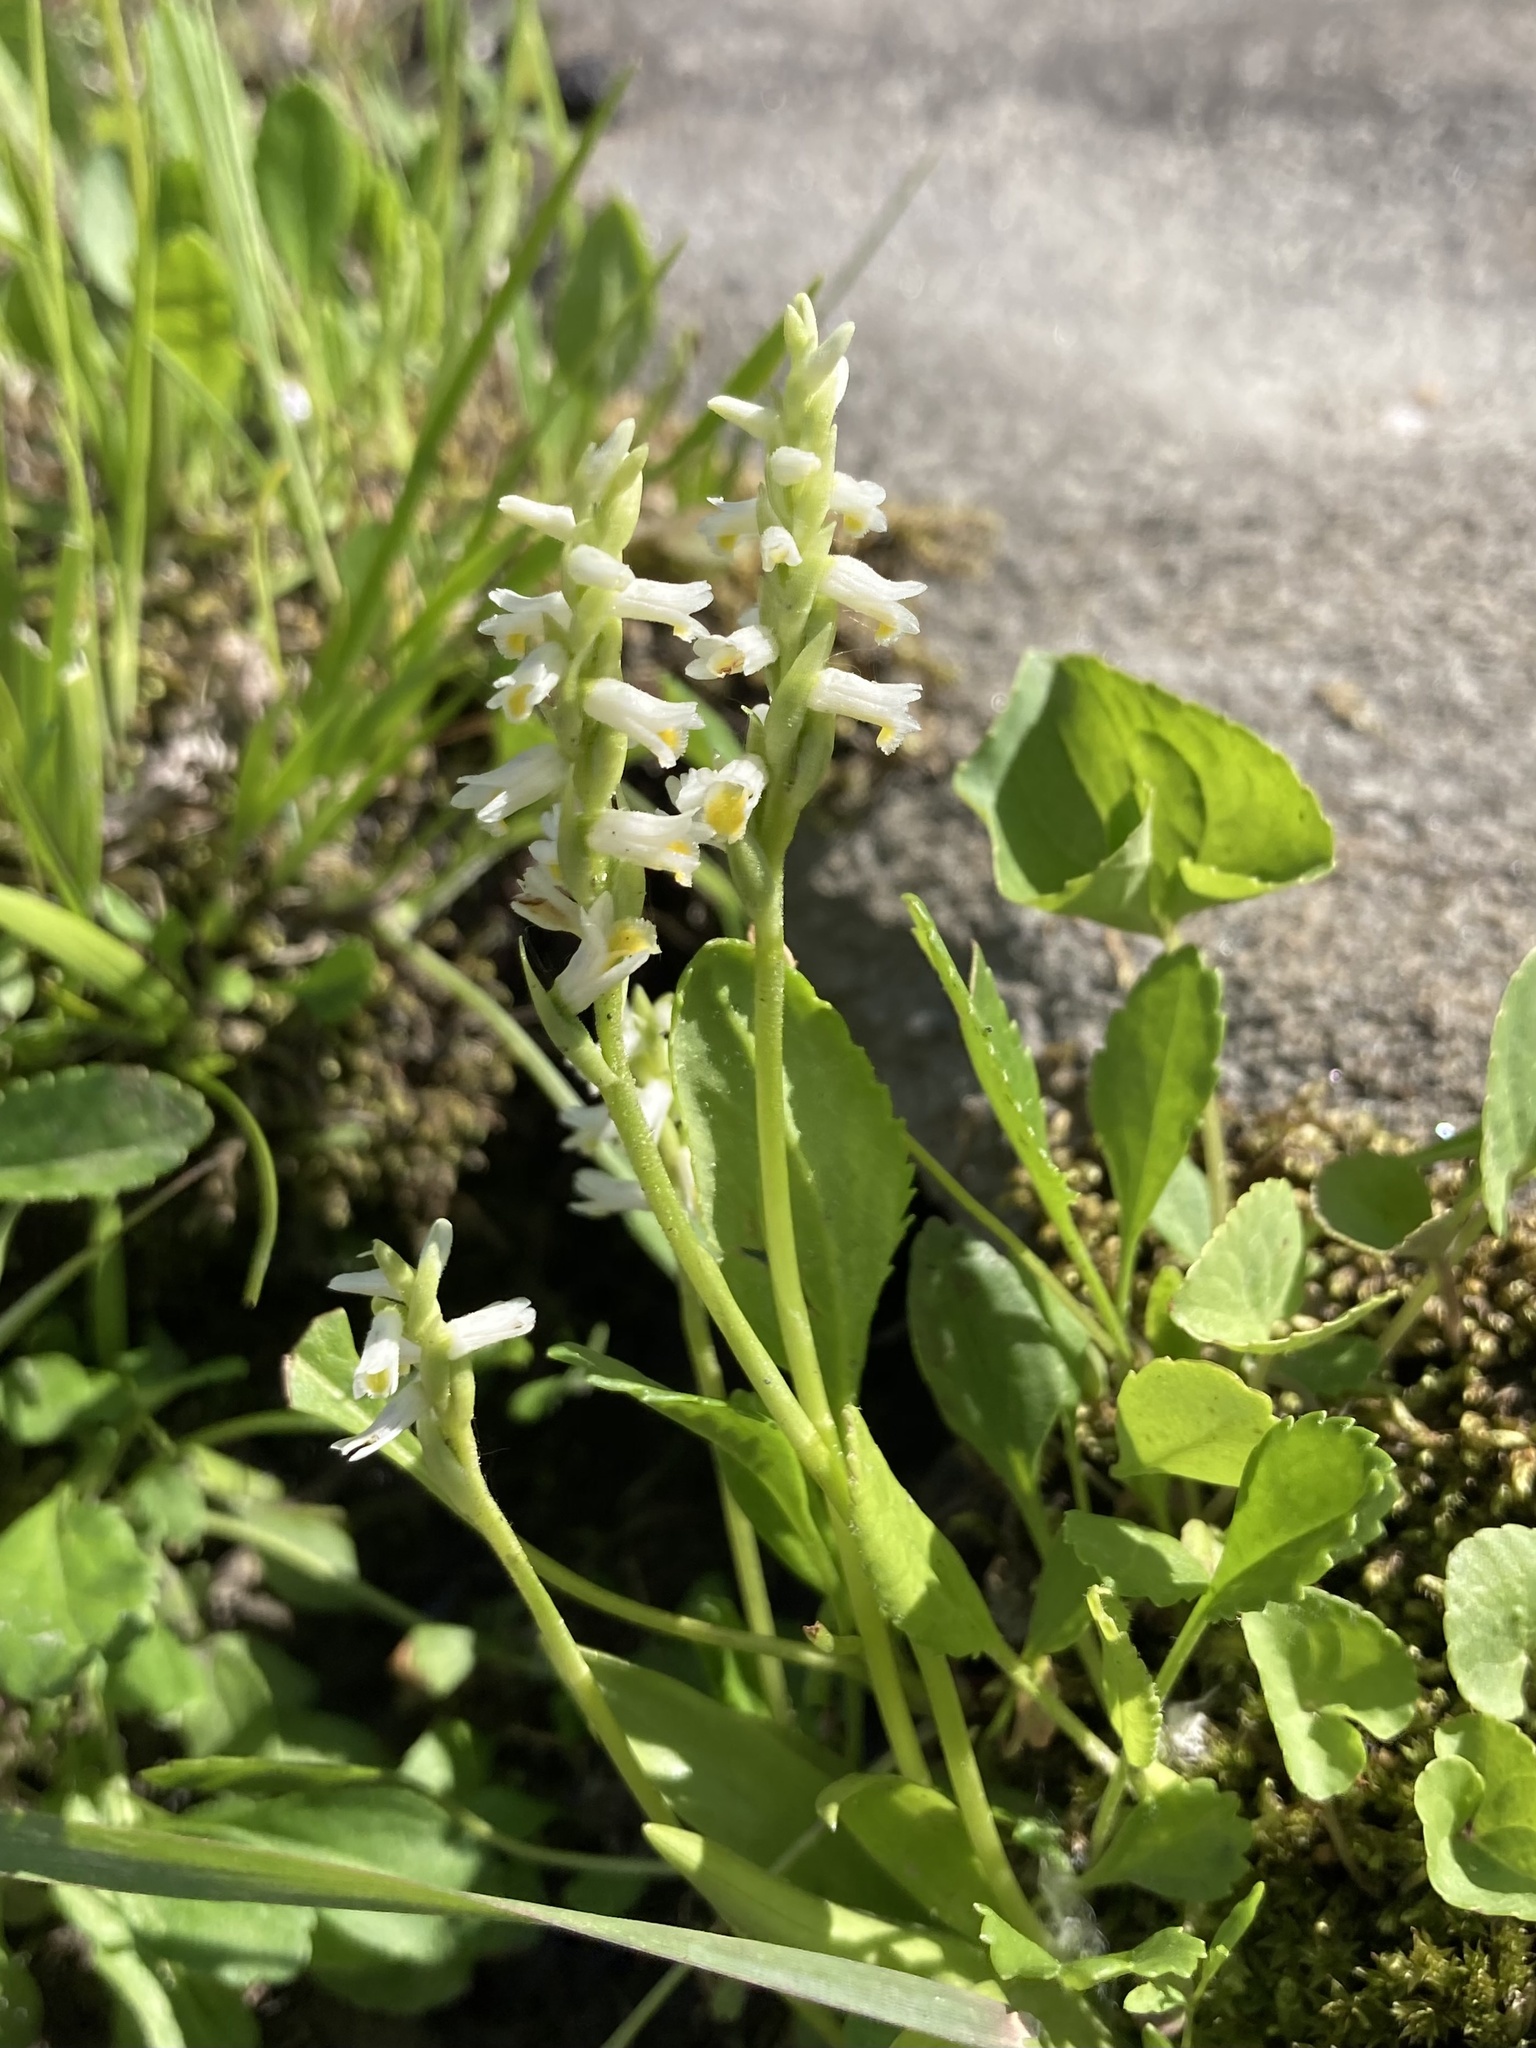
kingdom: Plantae
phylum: Tracheophyta
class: Liliopsida
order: Asparagales
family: Orchidaceae
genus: Spiranthes
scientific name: Spiranthes lucida
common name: Broad-leaved ladies'-tresses
